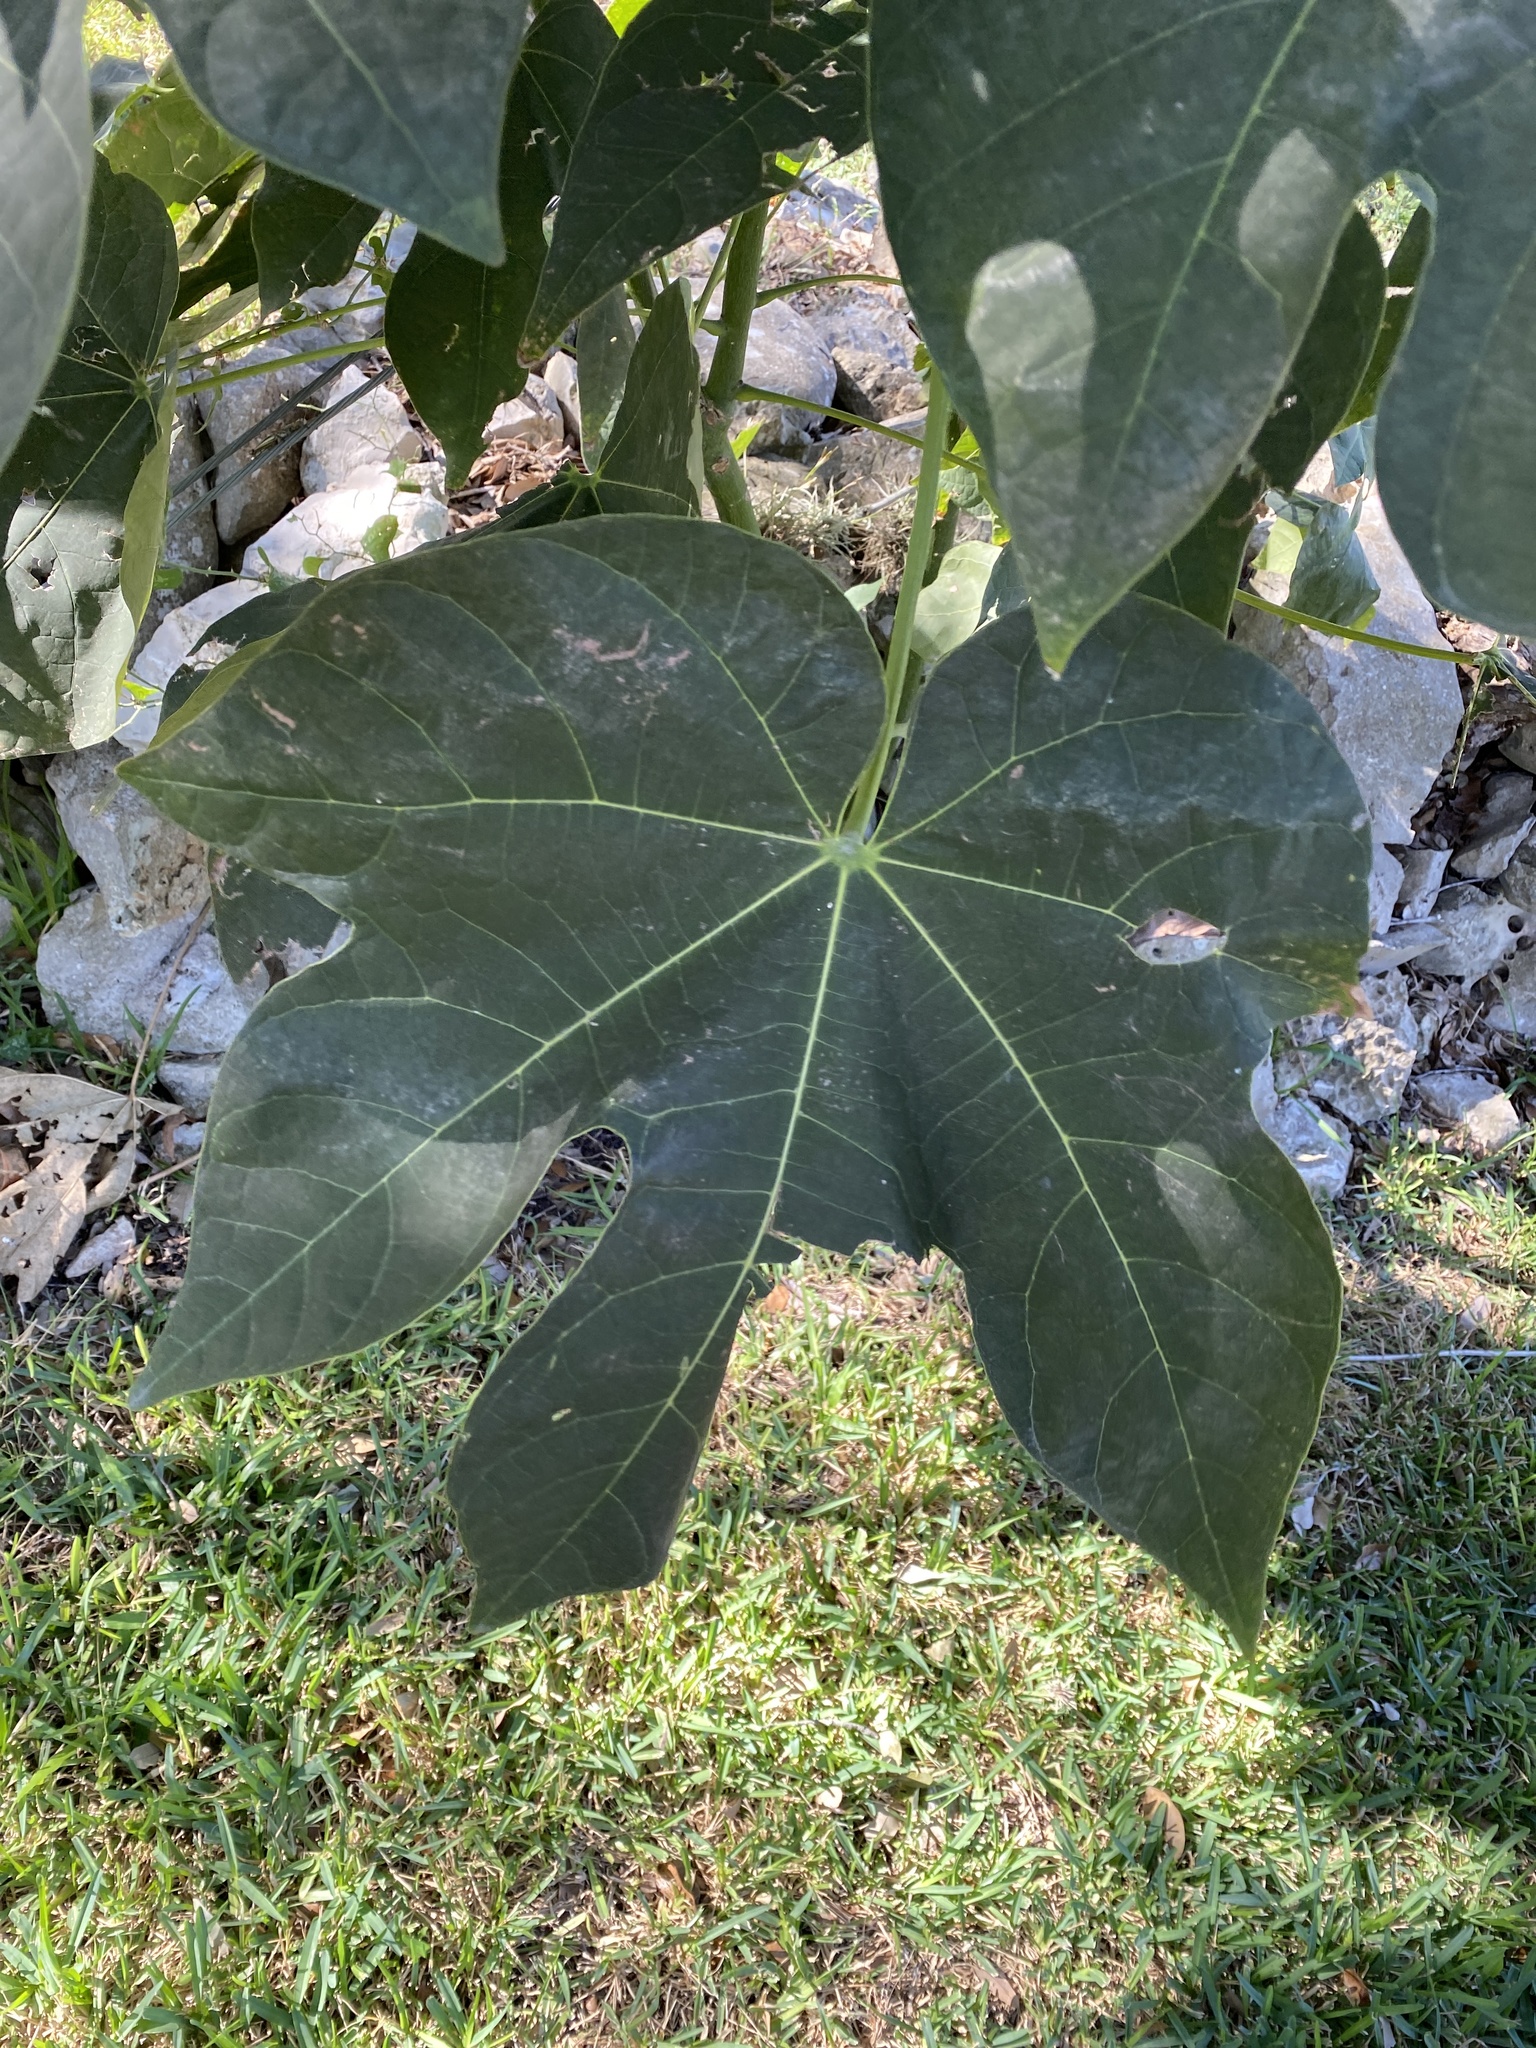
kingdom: Plantae
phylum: Tracheophyta
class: Magnoliopsida
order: Malvales
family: Malvaceae
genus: Firmiana
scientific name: Firmiana simplex
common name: Chinese parasoltree
